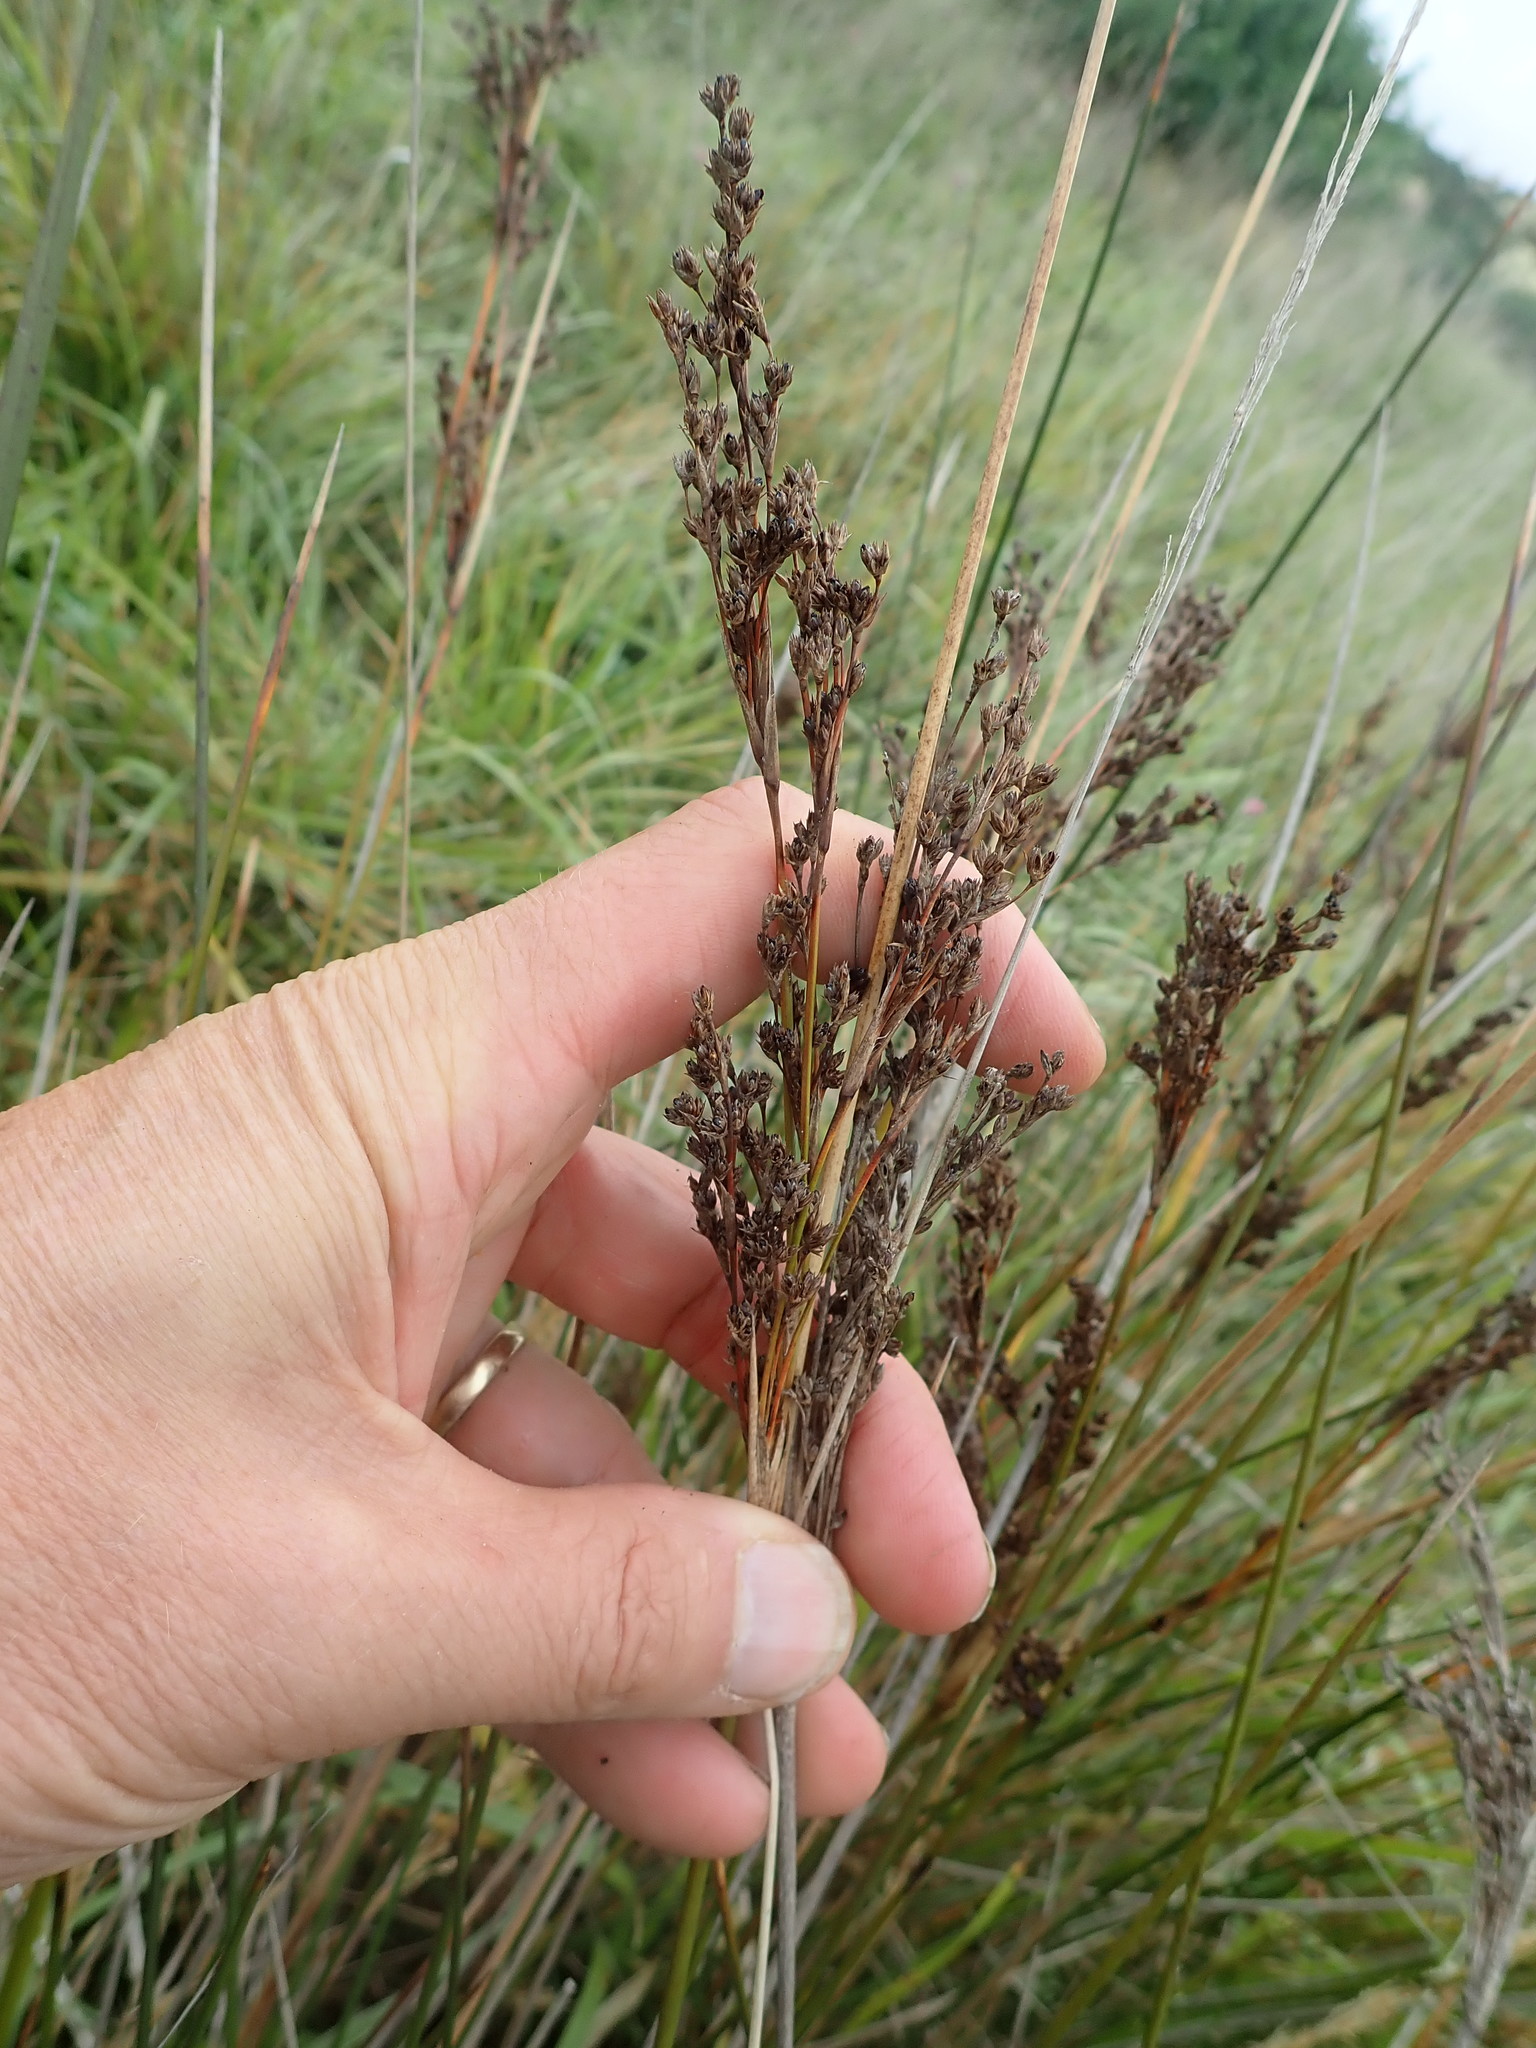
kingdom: Plantae
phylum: Tracheophyta
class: Liliopsida
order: Poales
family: Juncaceae
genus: Juncus
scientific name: Juncus kraussii
